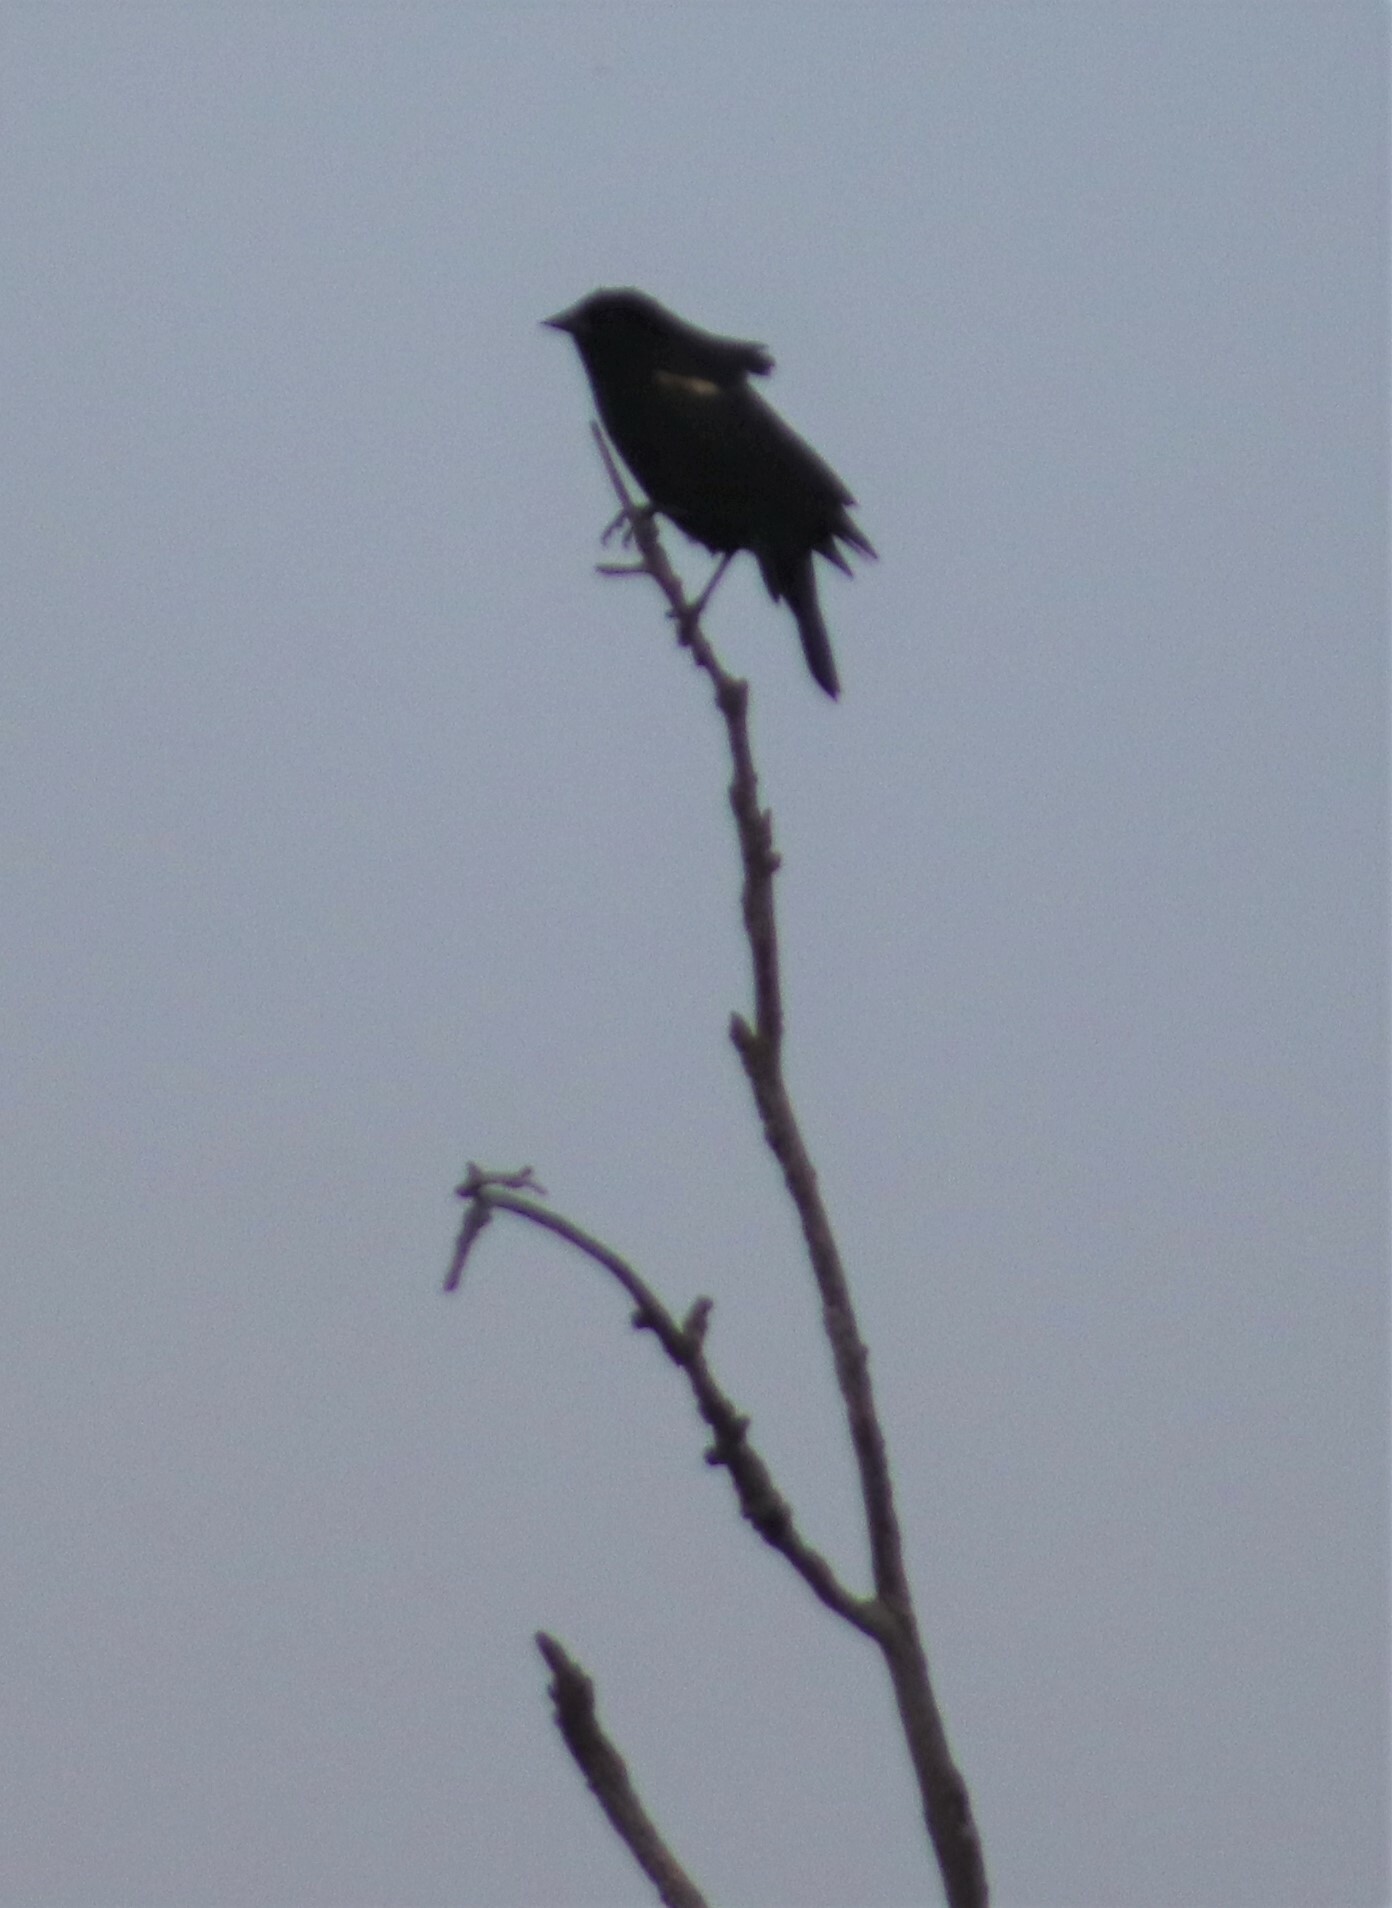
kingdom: Animalia
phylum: Chordata
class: Aves
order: Passeriformes
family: Icteridae
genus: Agelaius
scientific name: Agelaius phoeniceus
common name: Red-winged blackbird
